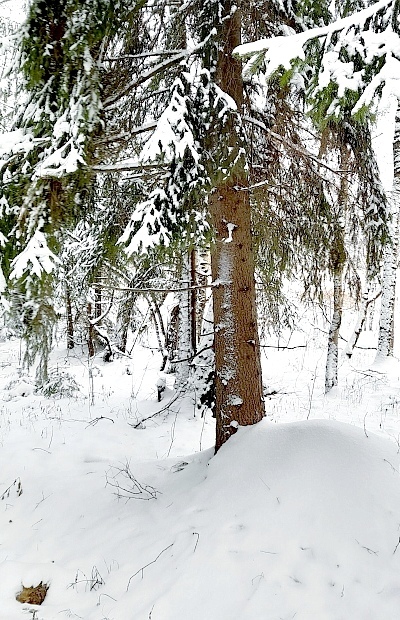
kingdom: Plantae
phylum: Tracheophyta
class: Pinopsida
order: Pinales
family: Pinaceae
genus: Picea
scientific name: Picea abies
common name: Norway spruce
